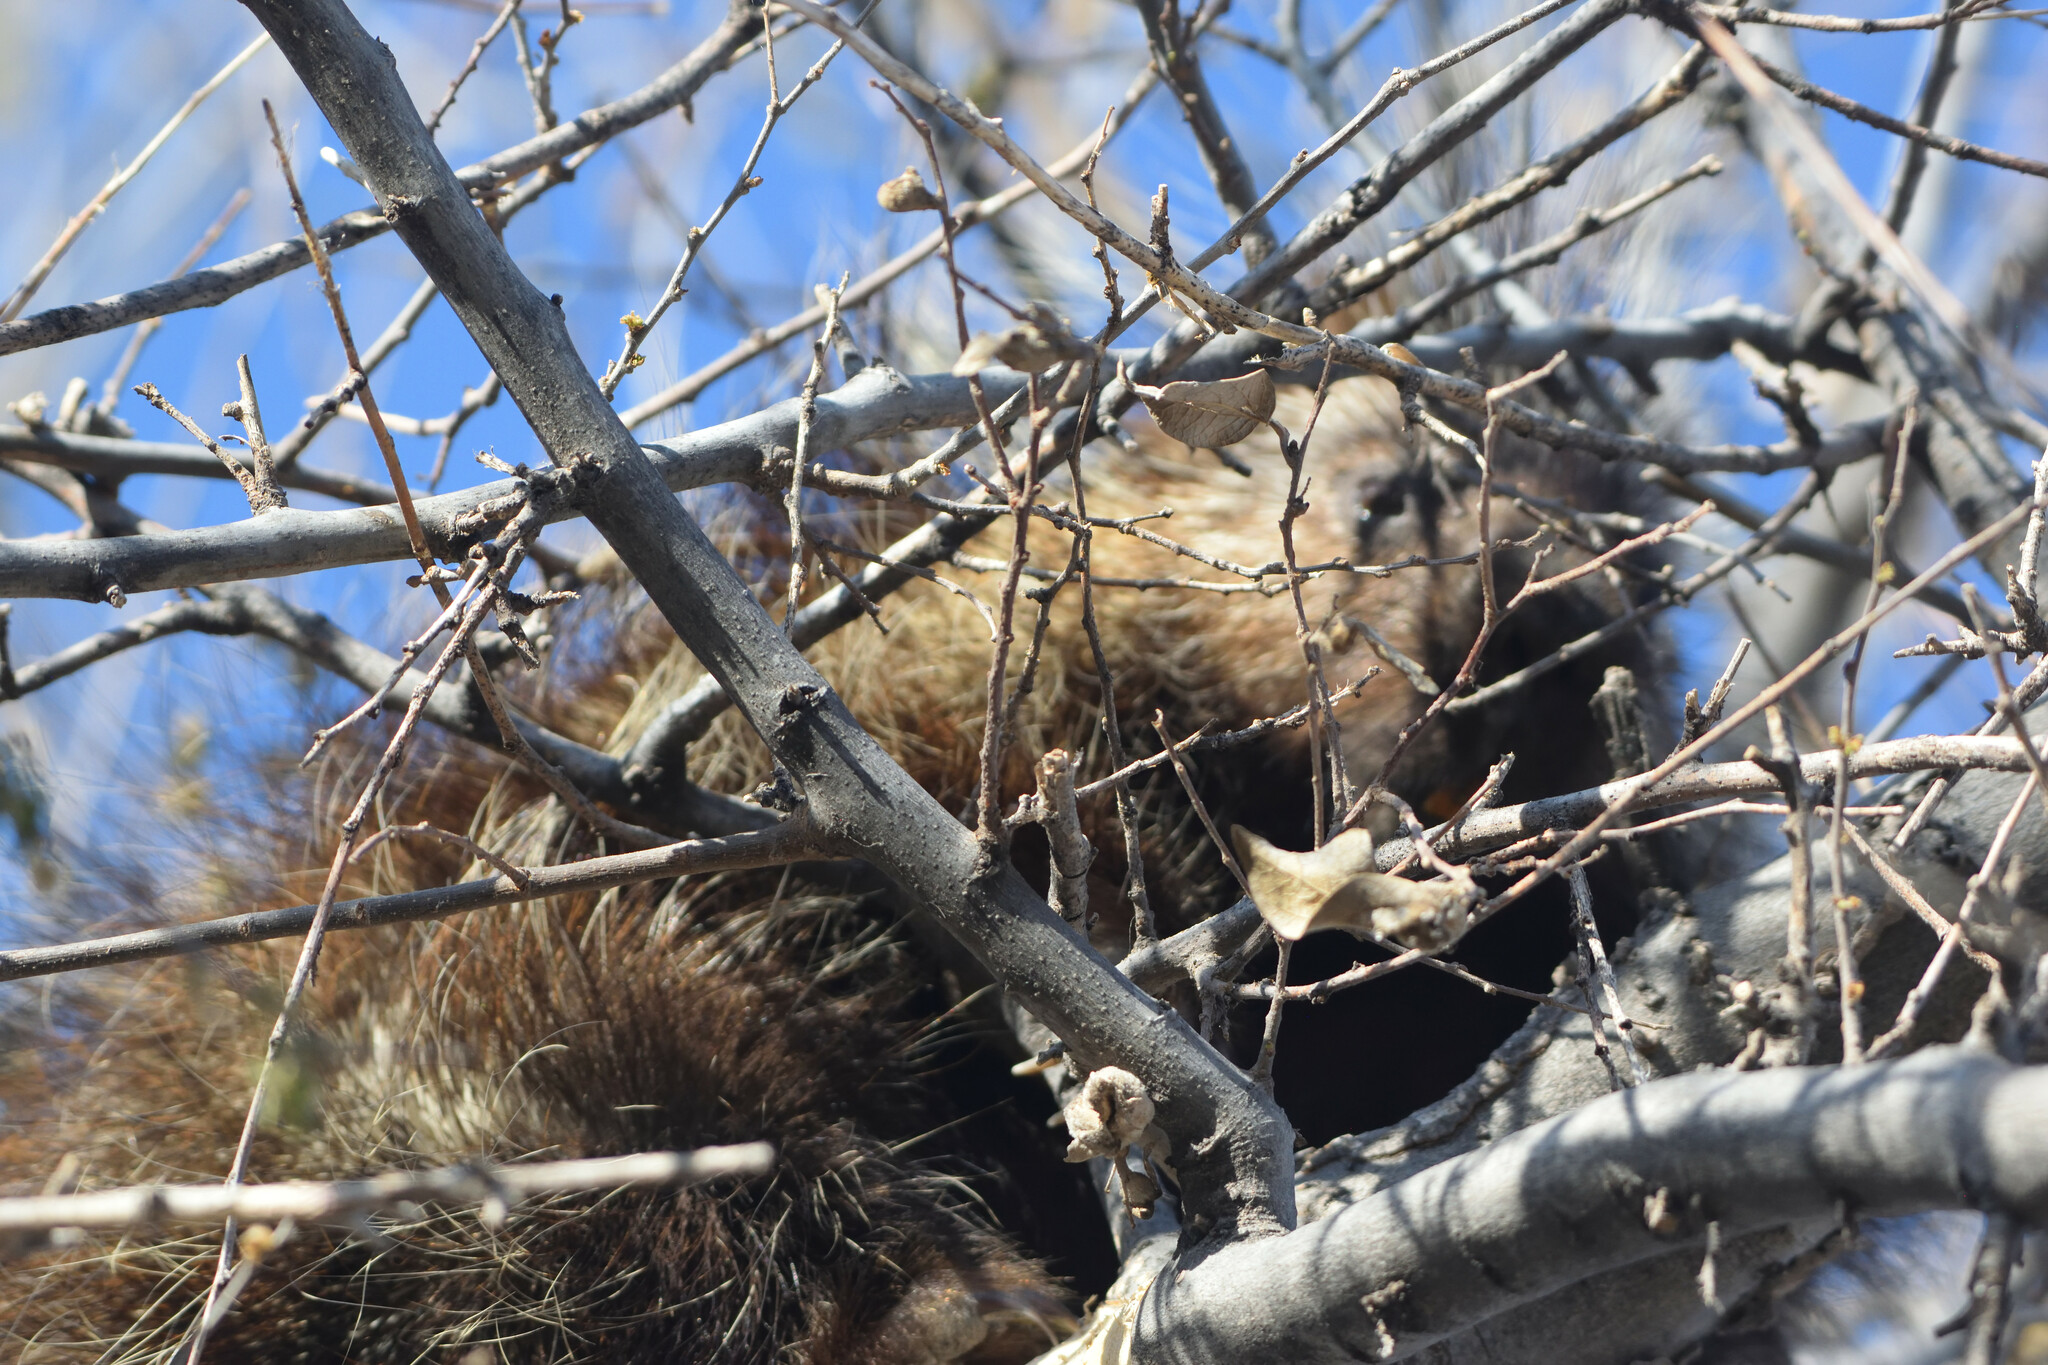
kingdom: Animalia
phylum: Chordata
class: Mammalia
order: Rodentia
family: Erethizontidae
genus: Erethizon
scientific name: Erethizon dorsatus
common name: North american porcupine
